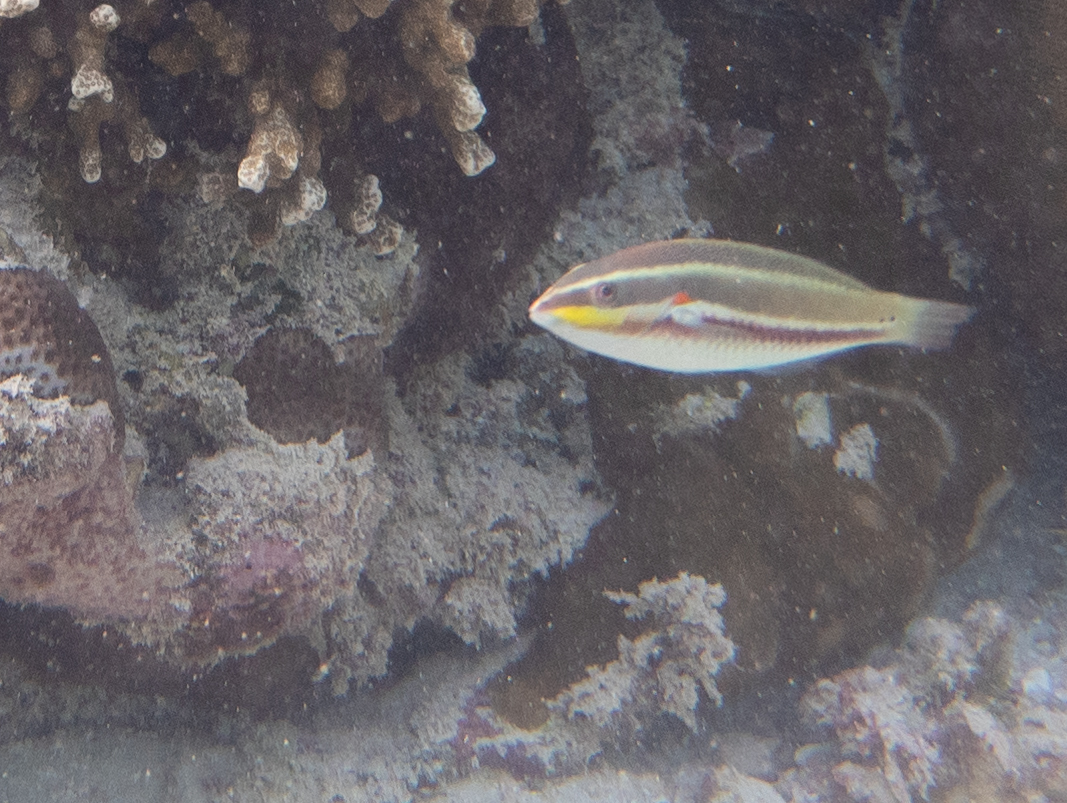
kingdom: Animalia
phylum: Chordata
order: Perciformes
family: Labridae
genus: Stethojulis
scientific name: Stethojulis albovittata
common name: Bluelined wrasse
